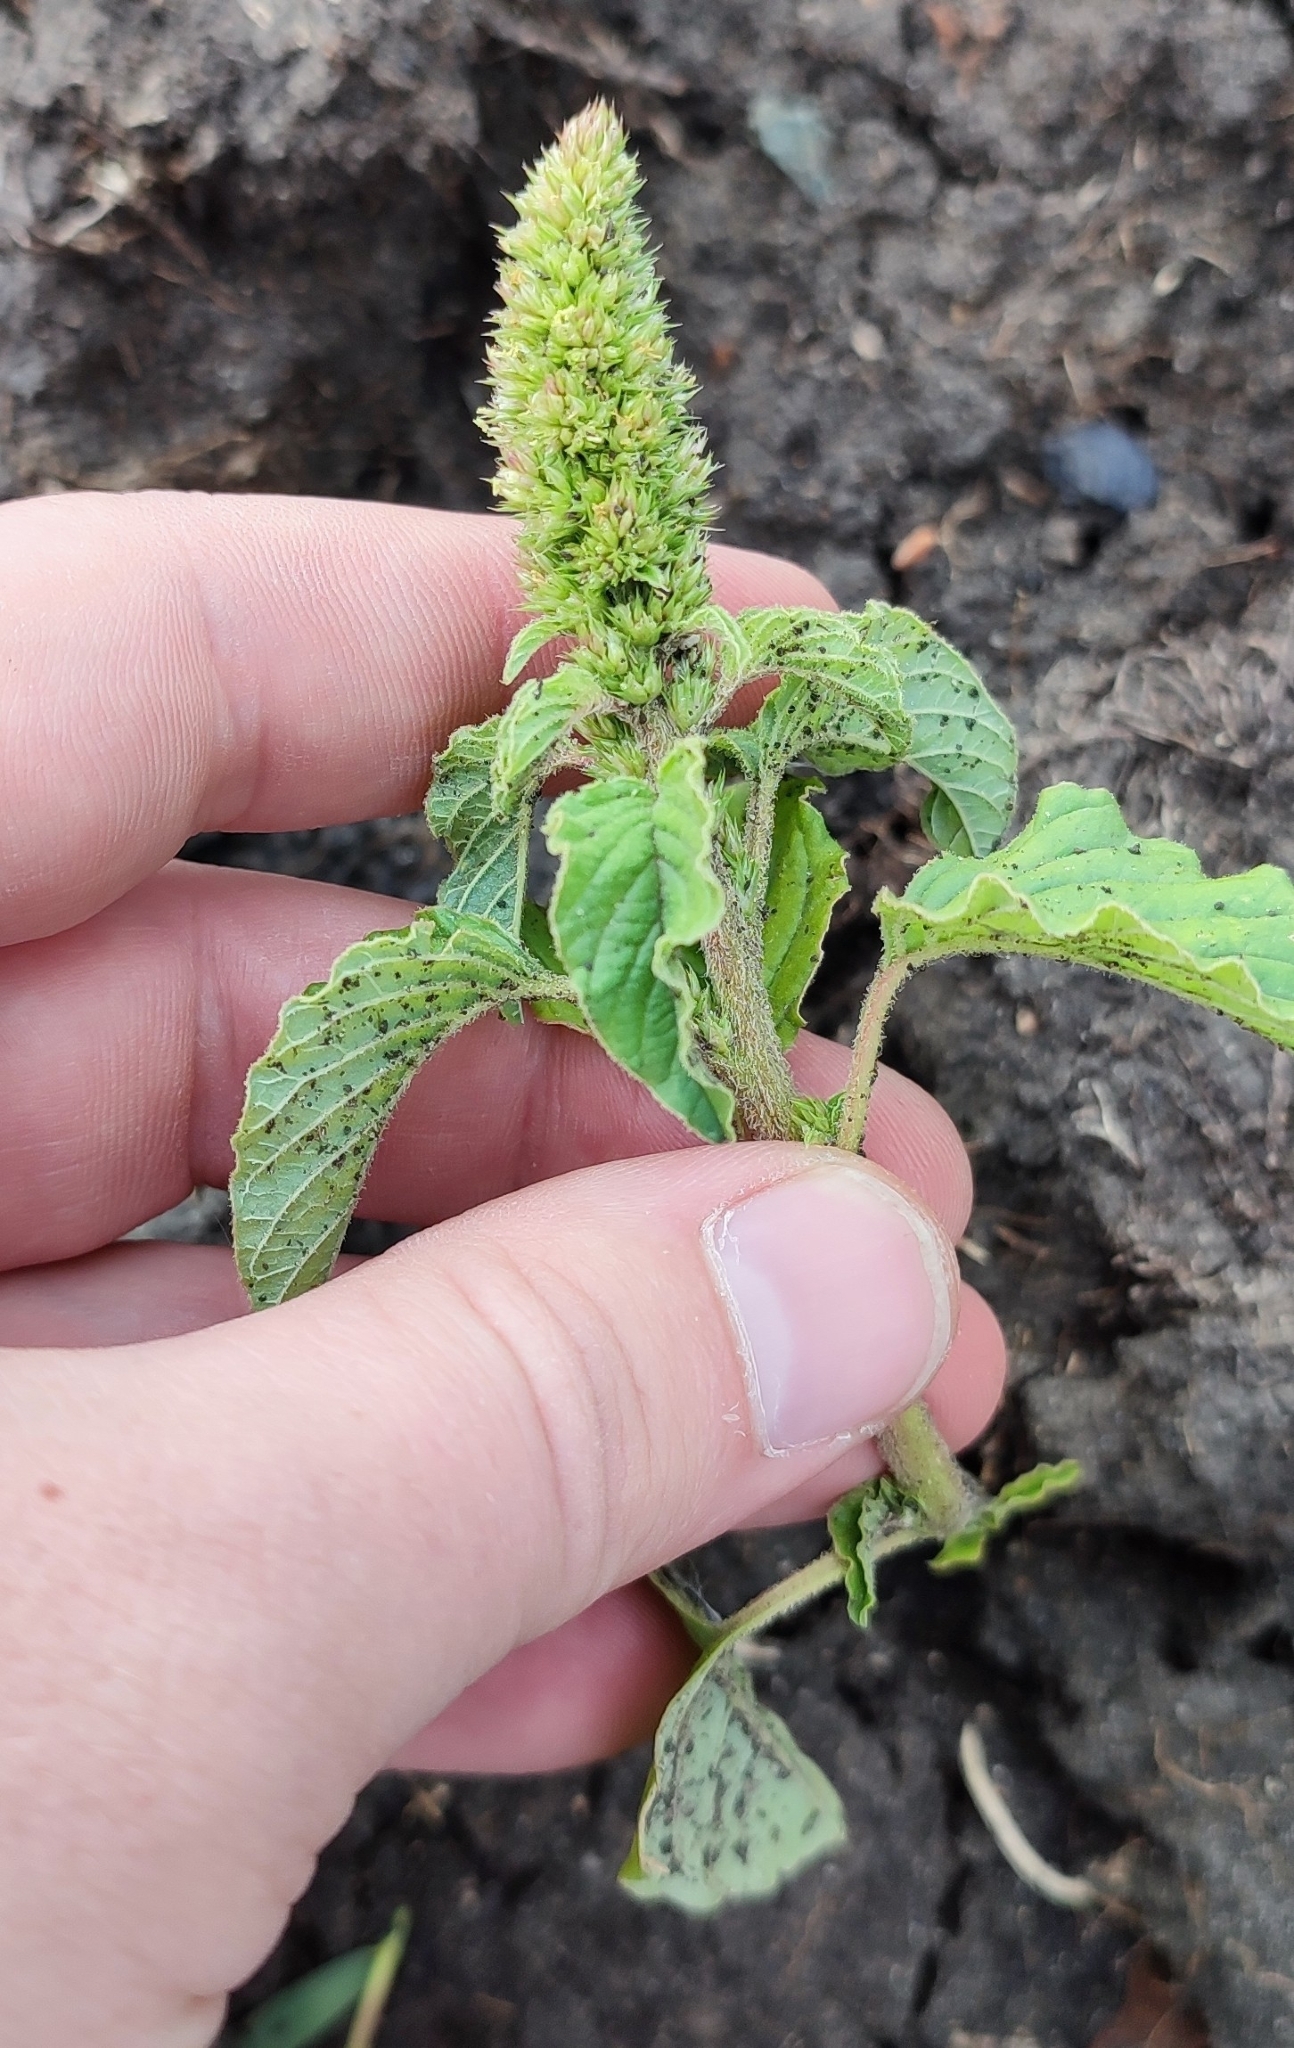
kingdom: Plantae
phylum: Tracheophyta
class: Magnoliopsida
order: Caryophyllales
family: Amaranthaceae
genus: Amaranthus
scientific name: Amaranthus retroflexus
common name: Redroot amaranth
